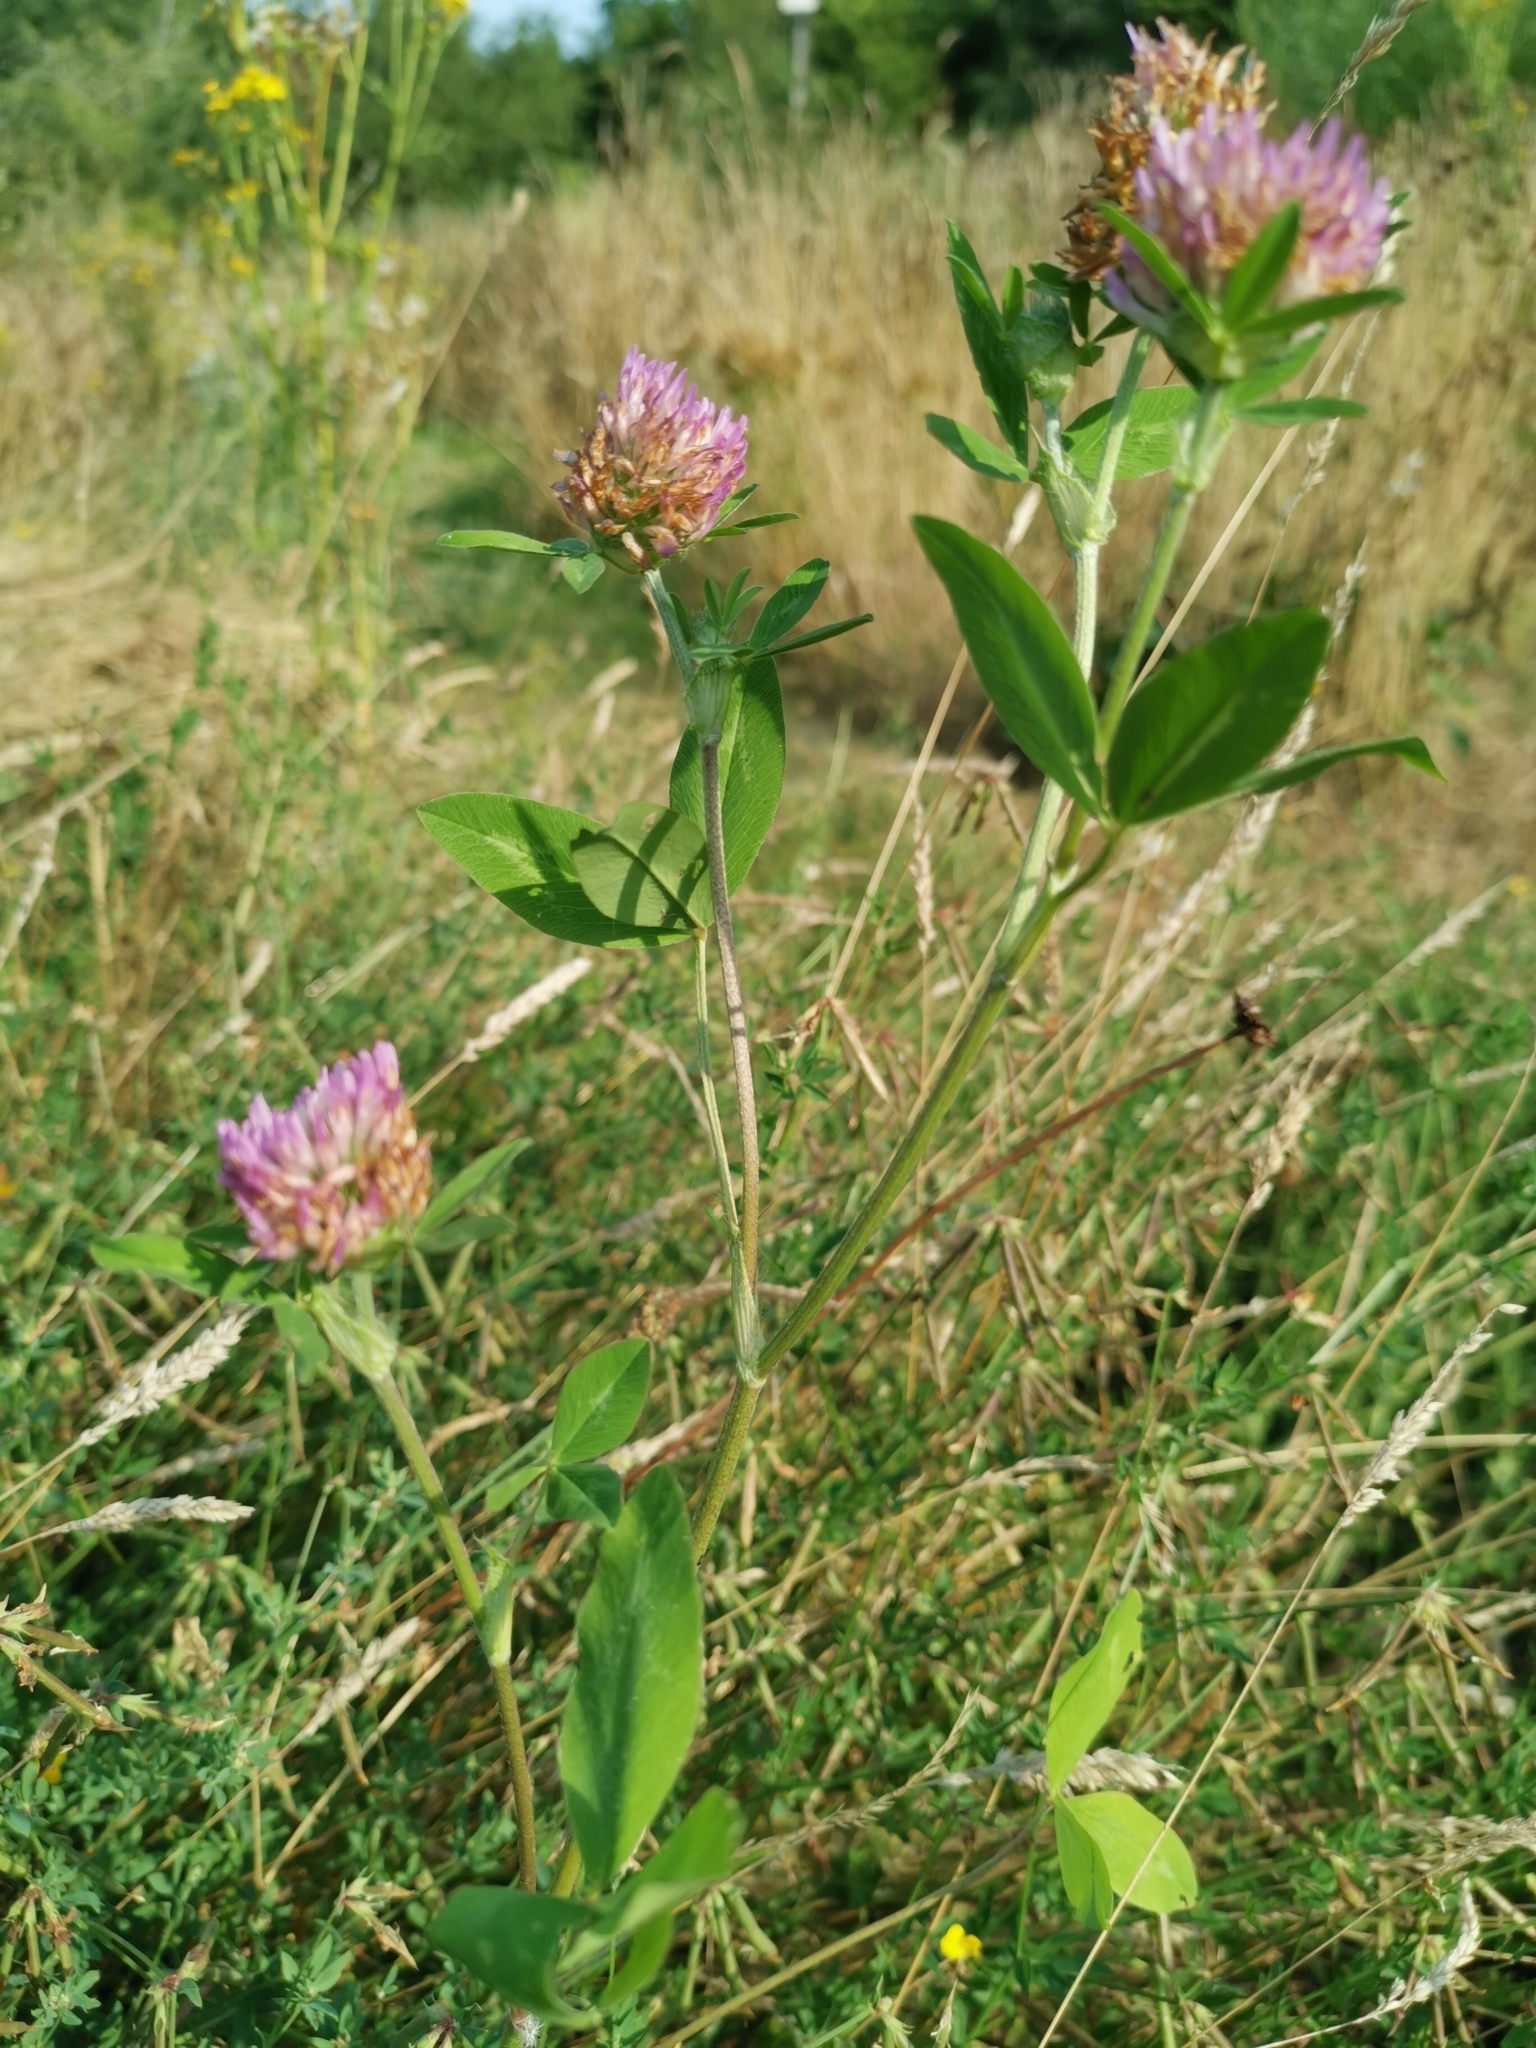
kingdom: Plantae
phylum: Tracheophyta
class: Magnoliopsida
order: Fabales
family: Fabaceae
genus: Trifolium
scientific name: Trifolium pratense
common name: Red clover
